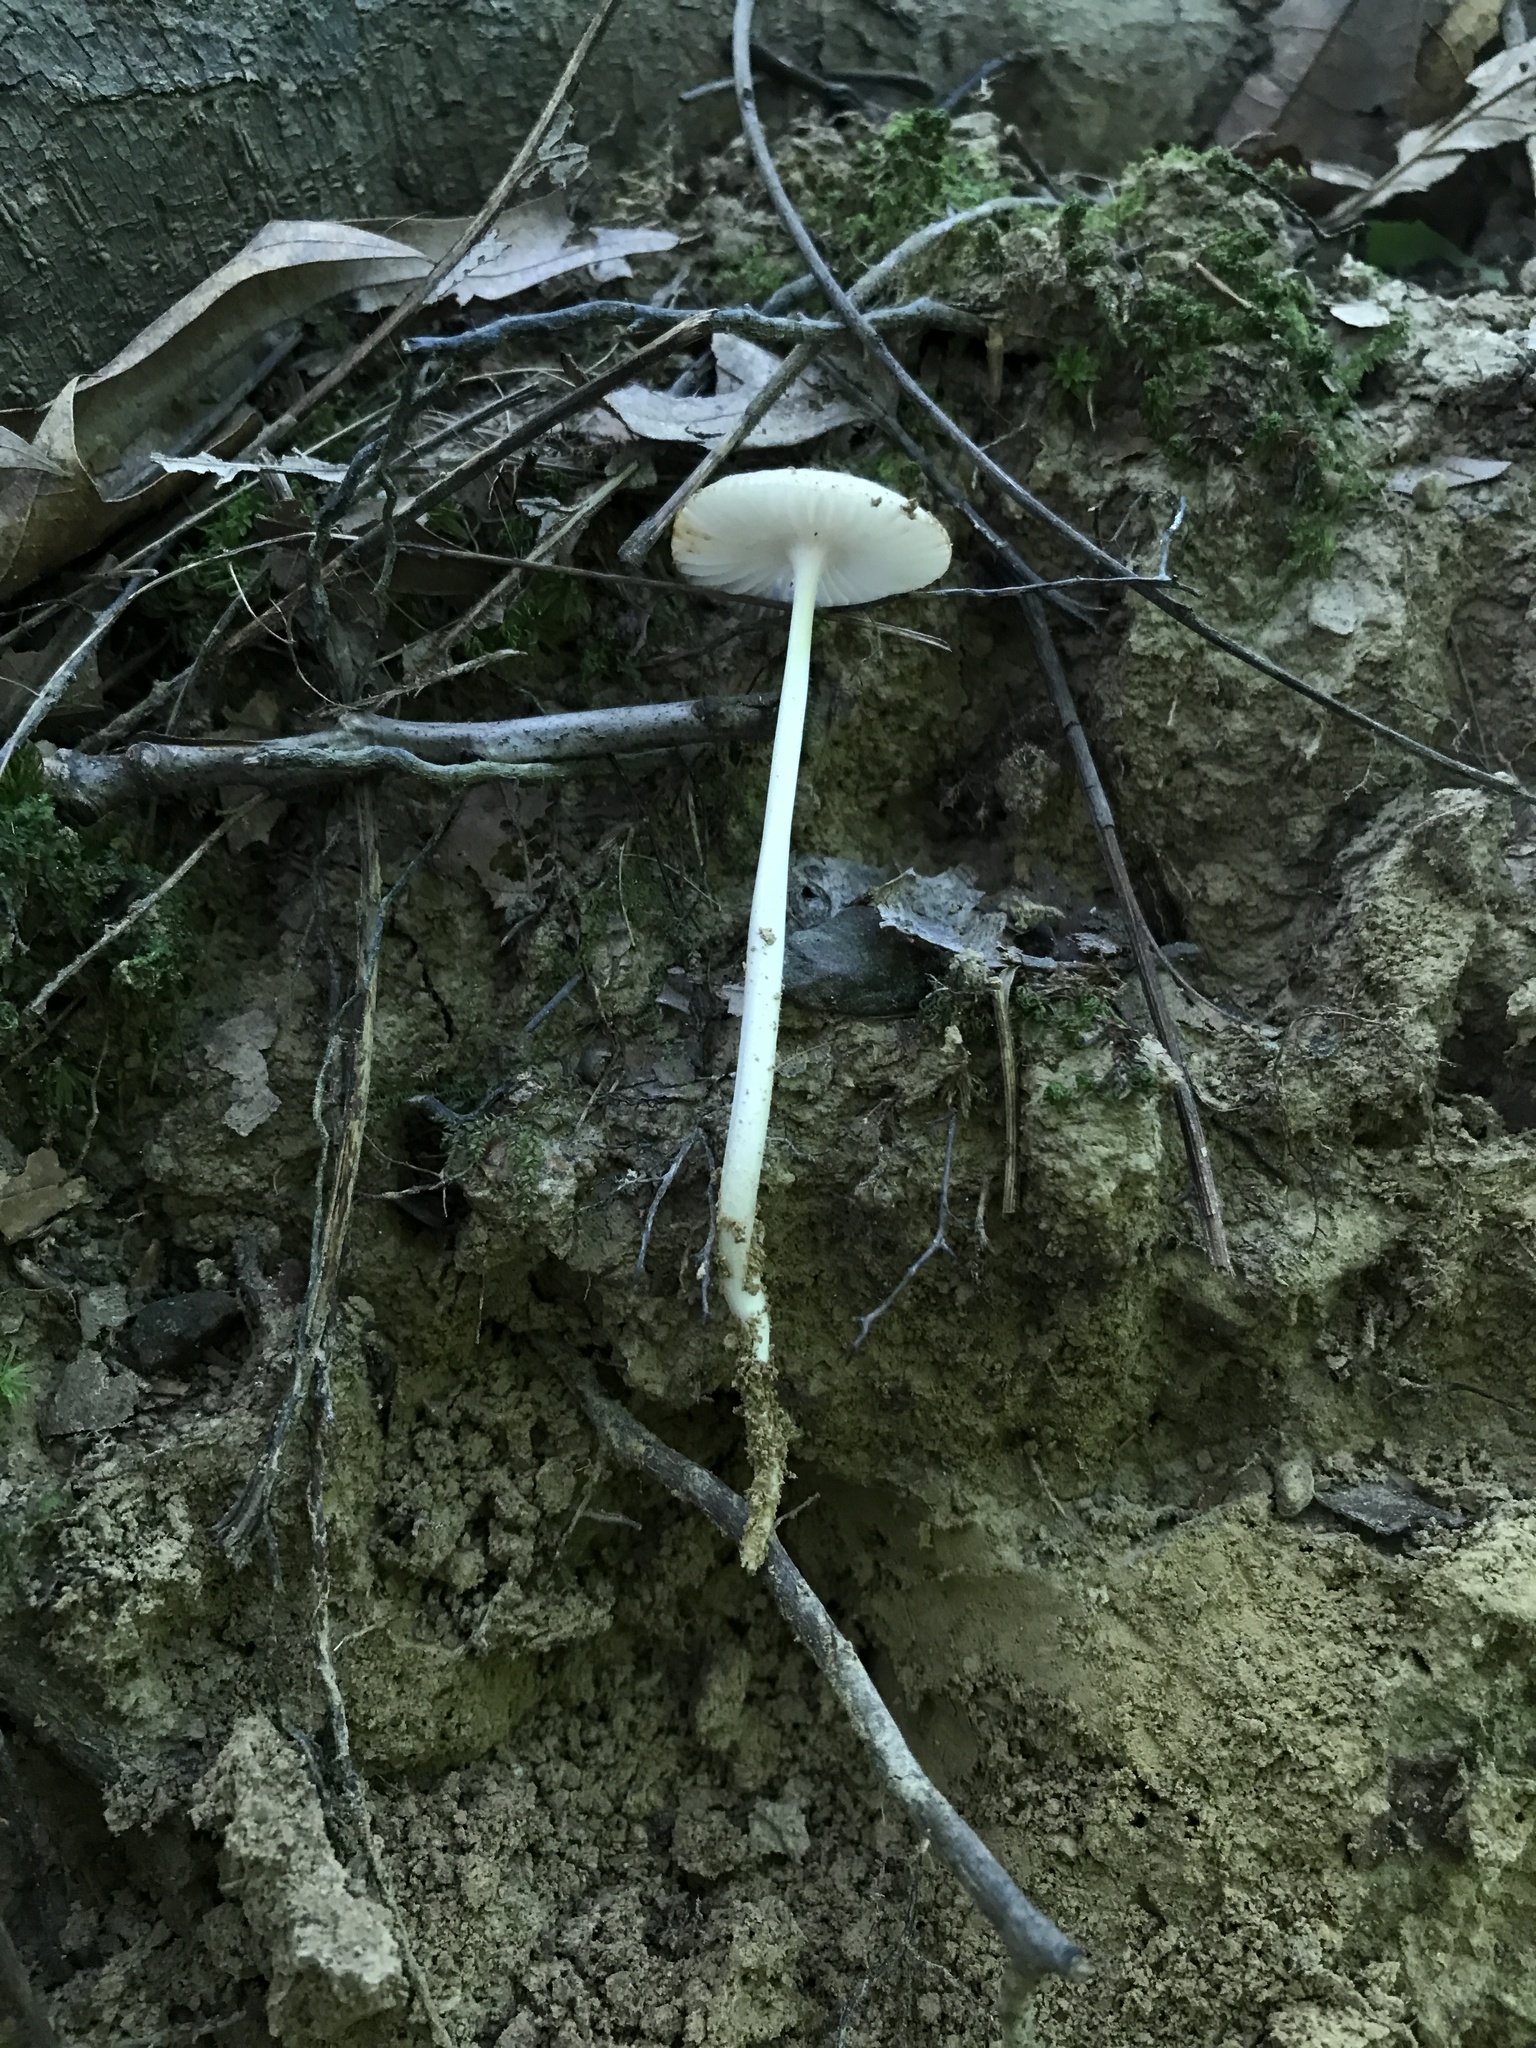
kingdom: Fungi
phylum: Basidiomycota
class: Agaricomycetes
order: Agaricales
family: Physalacriaceae
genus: Hymenopellis
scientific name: Hymenopellis furfuracea
